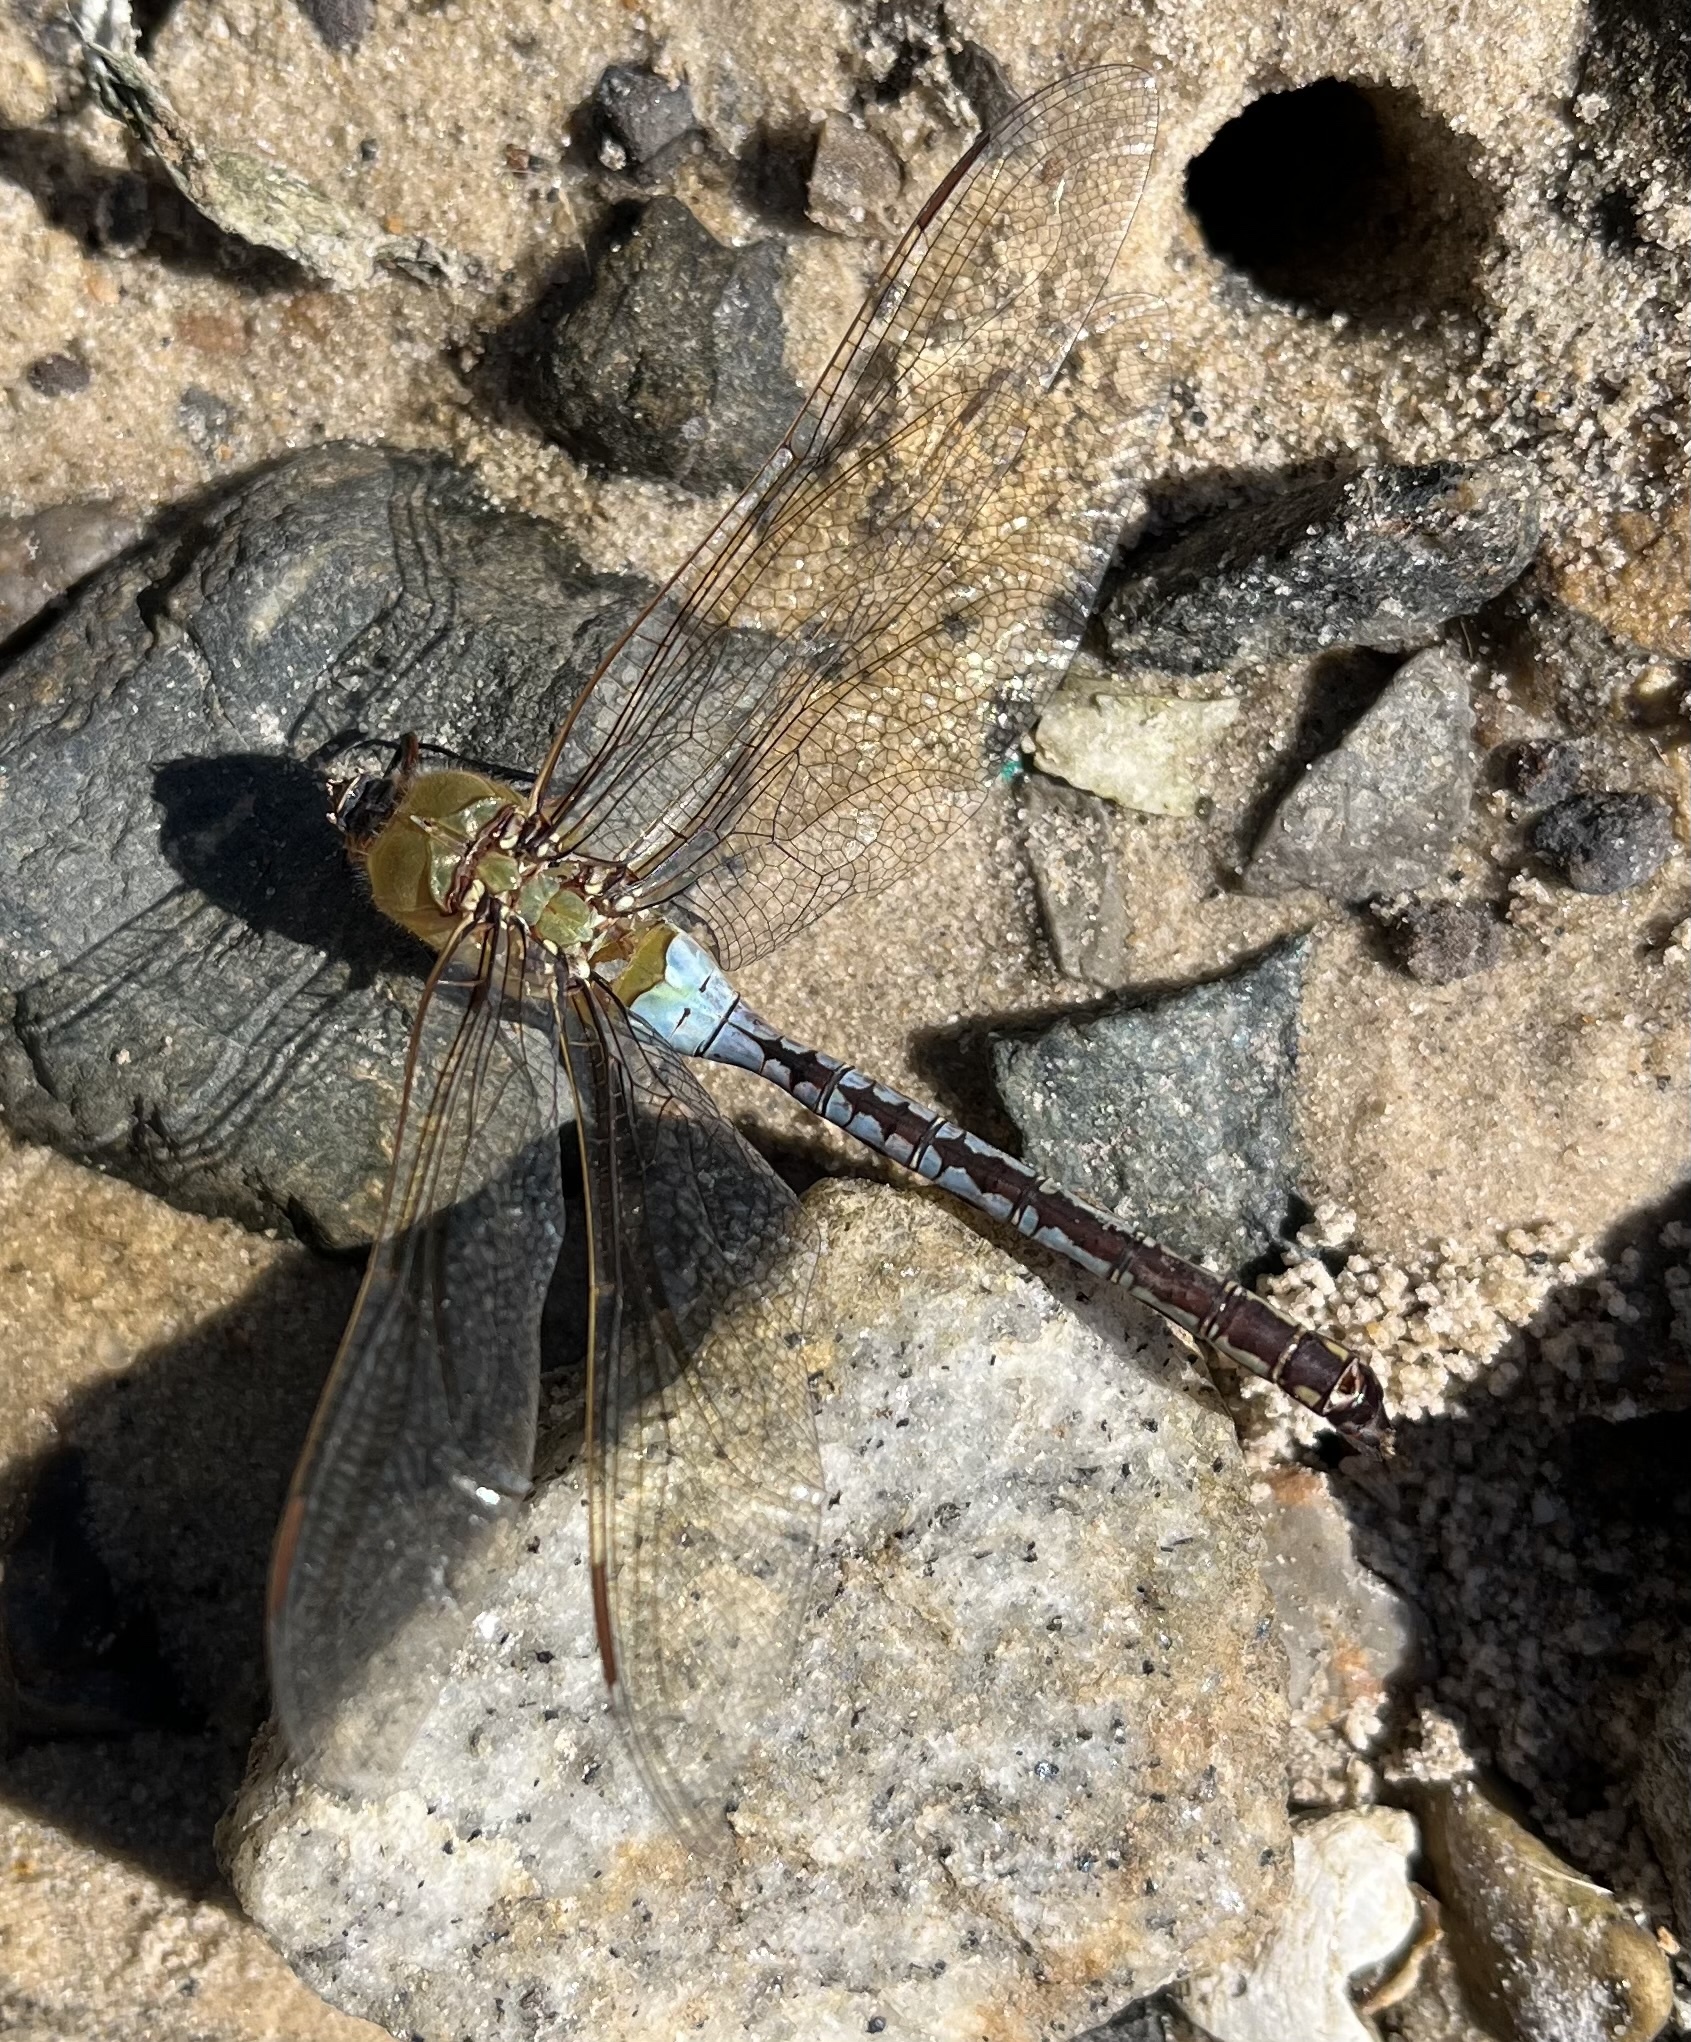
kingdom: Animalia
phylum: Arthropoda
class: Insecta
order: Odonata
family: Aeshnidae
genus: Anax
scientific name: Anax junius
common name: Common green darner
